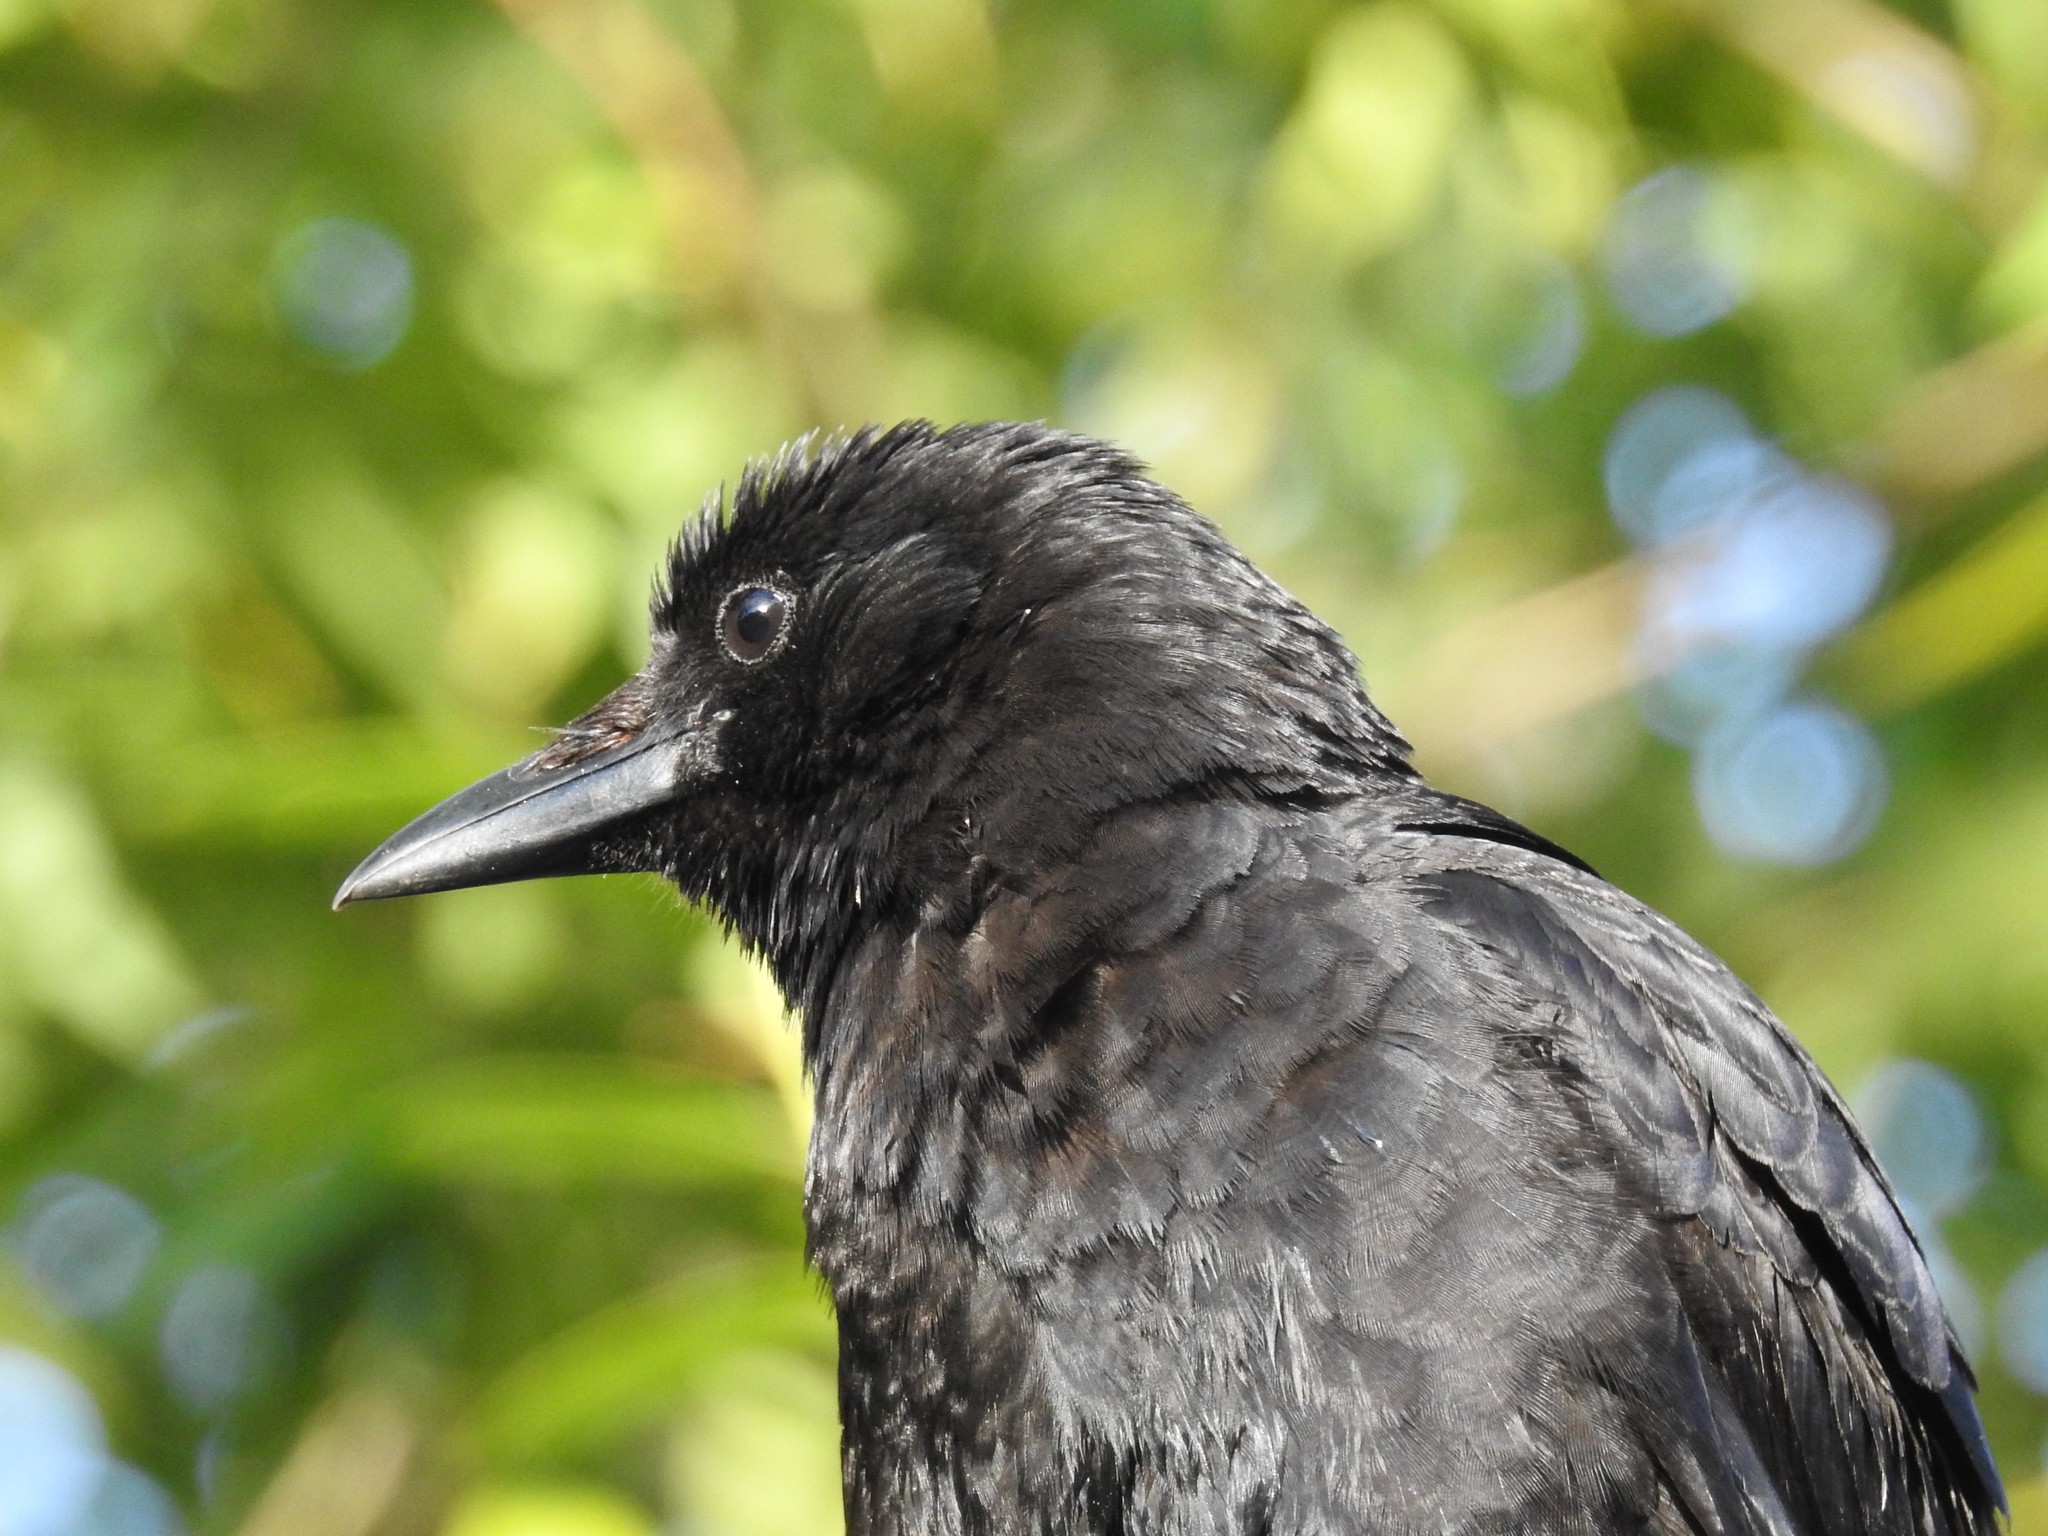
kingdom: Animalia
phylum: Chordata
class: Aves
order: Passeriformes
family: Corvidae
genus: Corvus
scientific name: Corvus brachyrhynchos
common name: American crow
